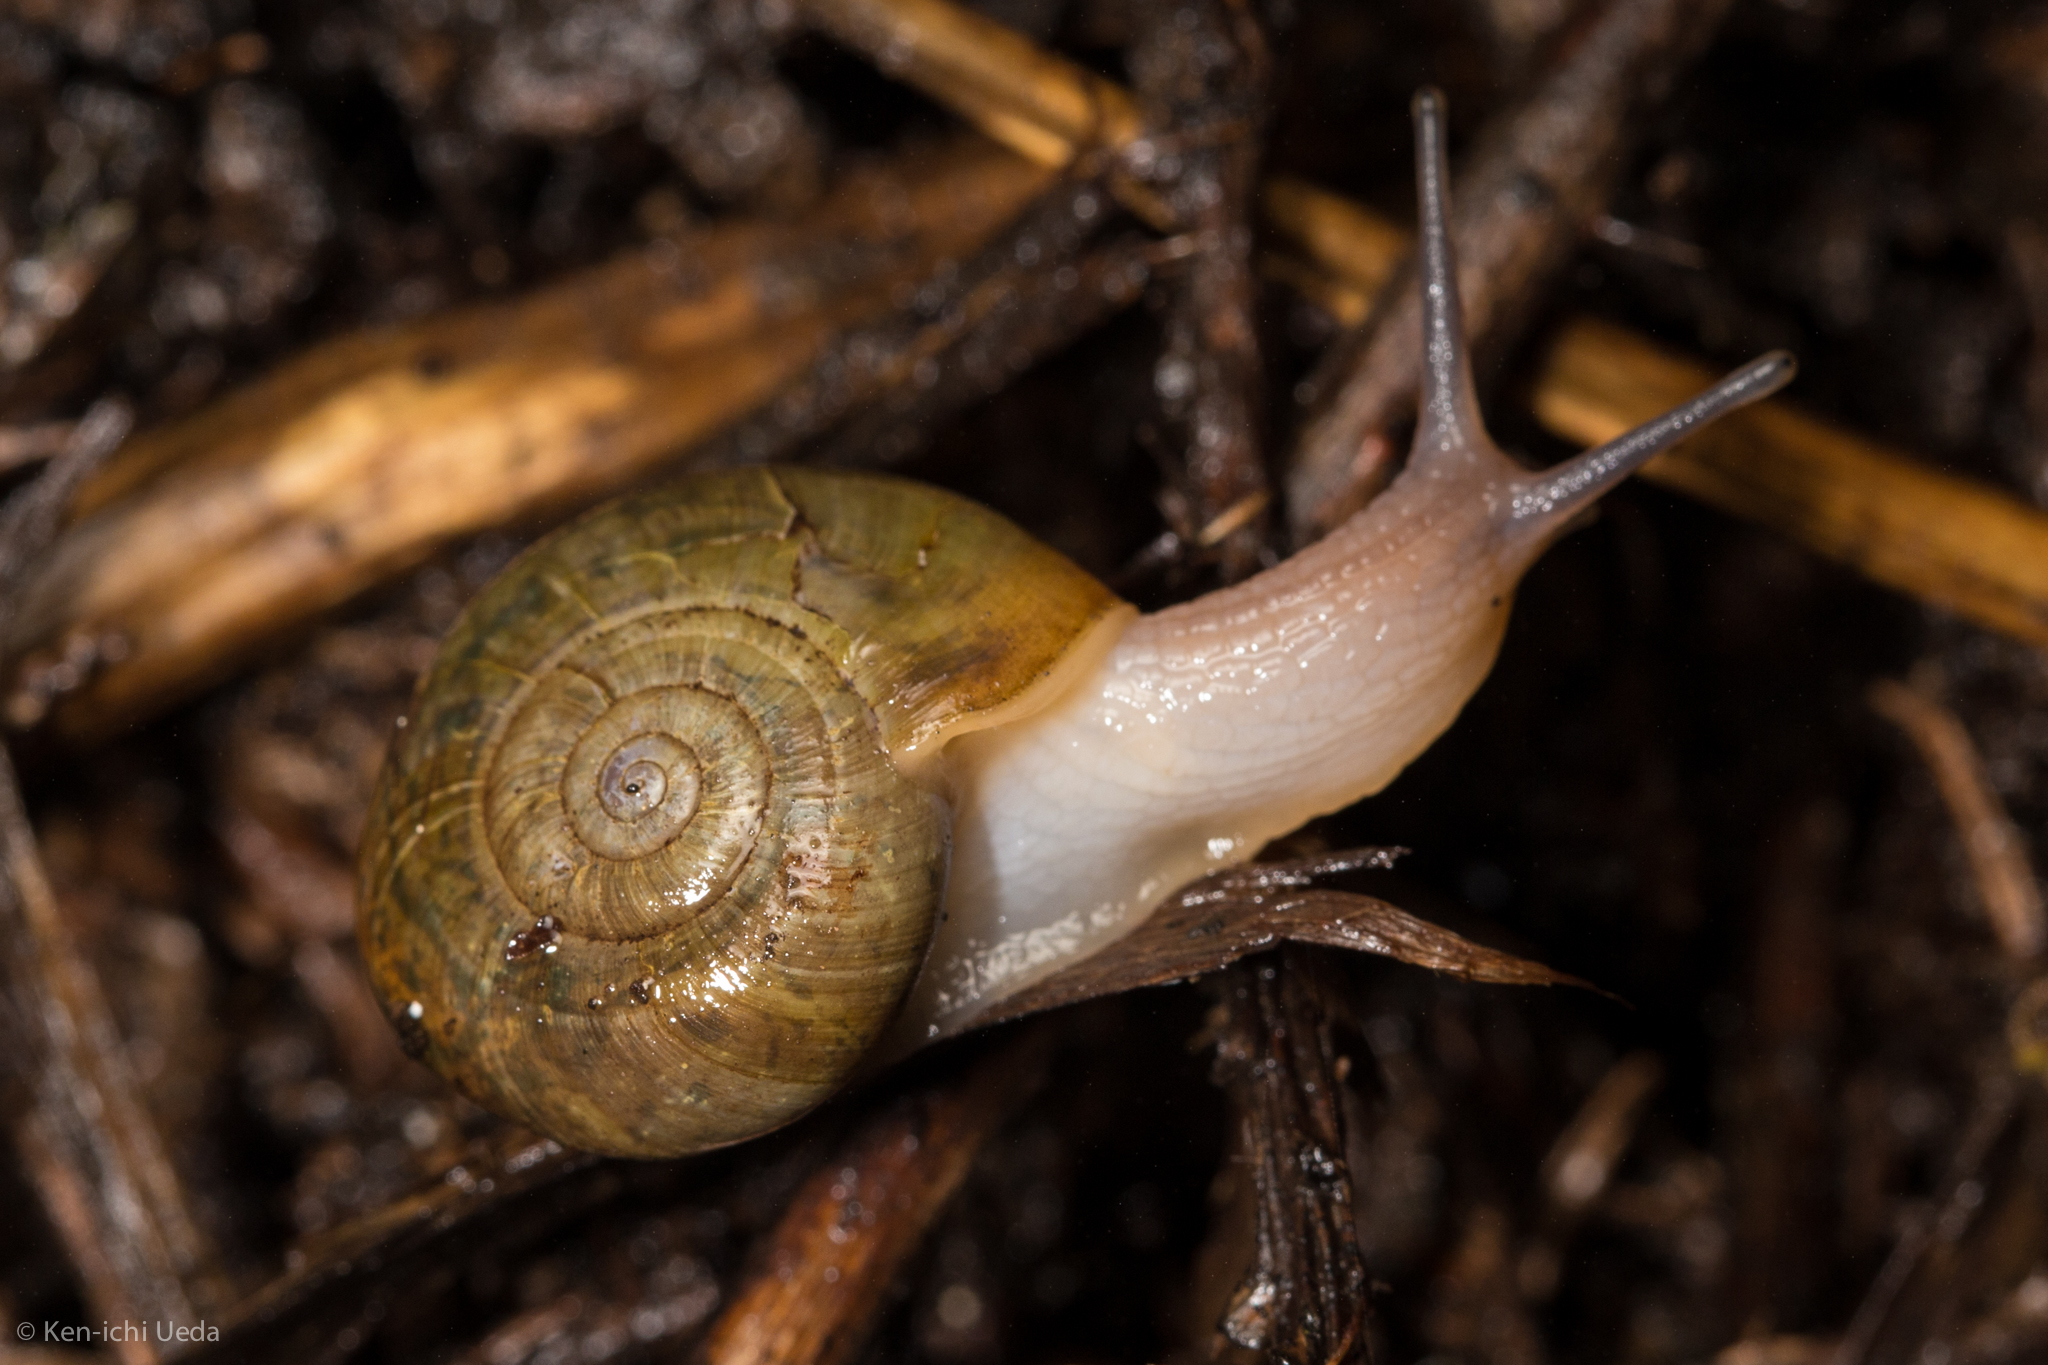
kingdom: Animalia
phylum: Mollusca
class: Gastropoda
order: Stylommatophora
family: Haplotrematidae
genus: Haplotrema
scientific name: Haplotrema minimum
